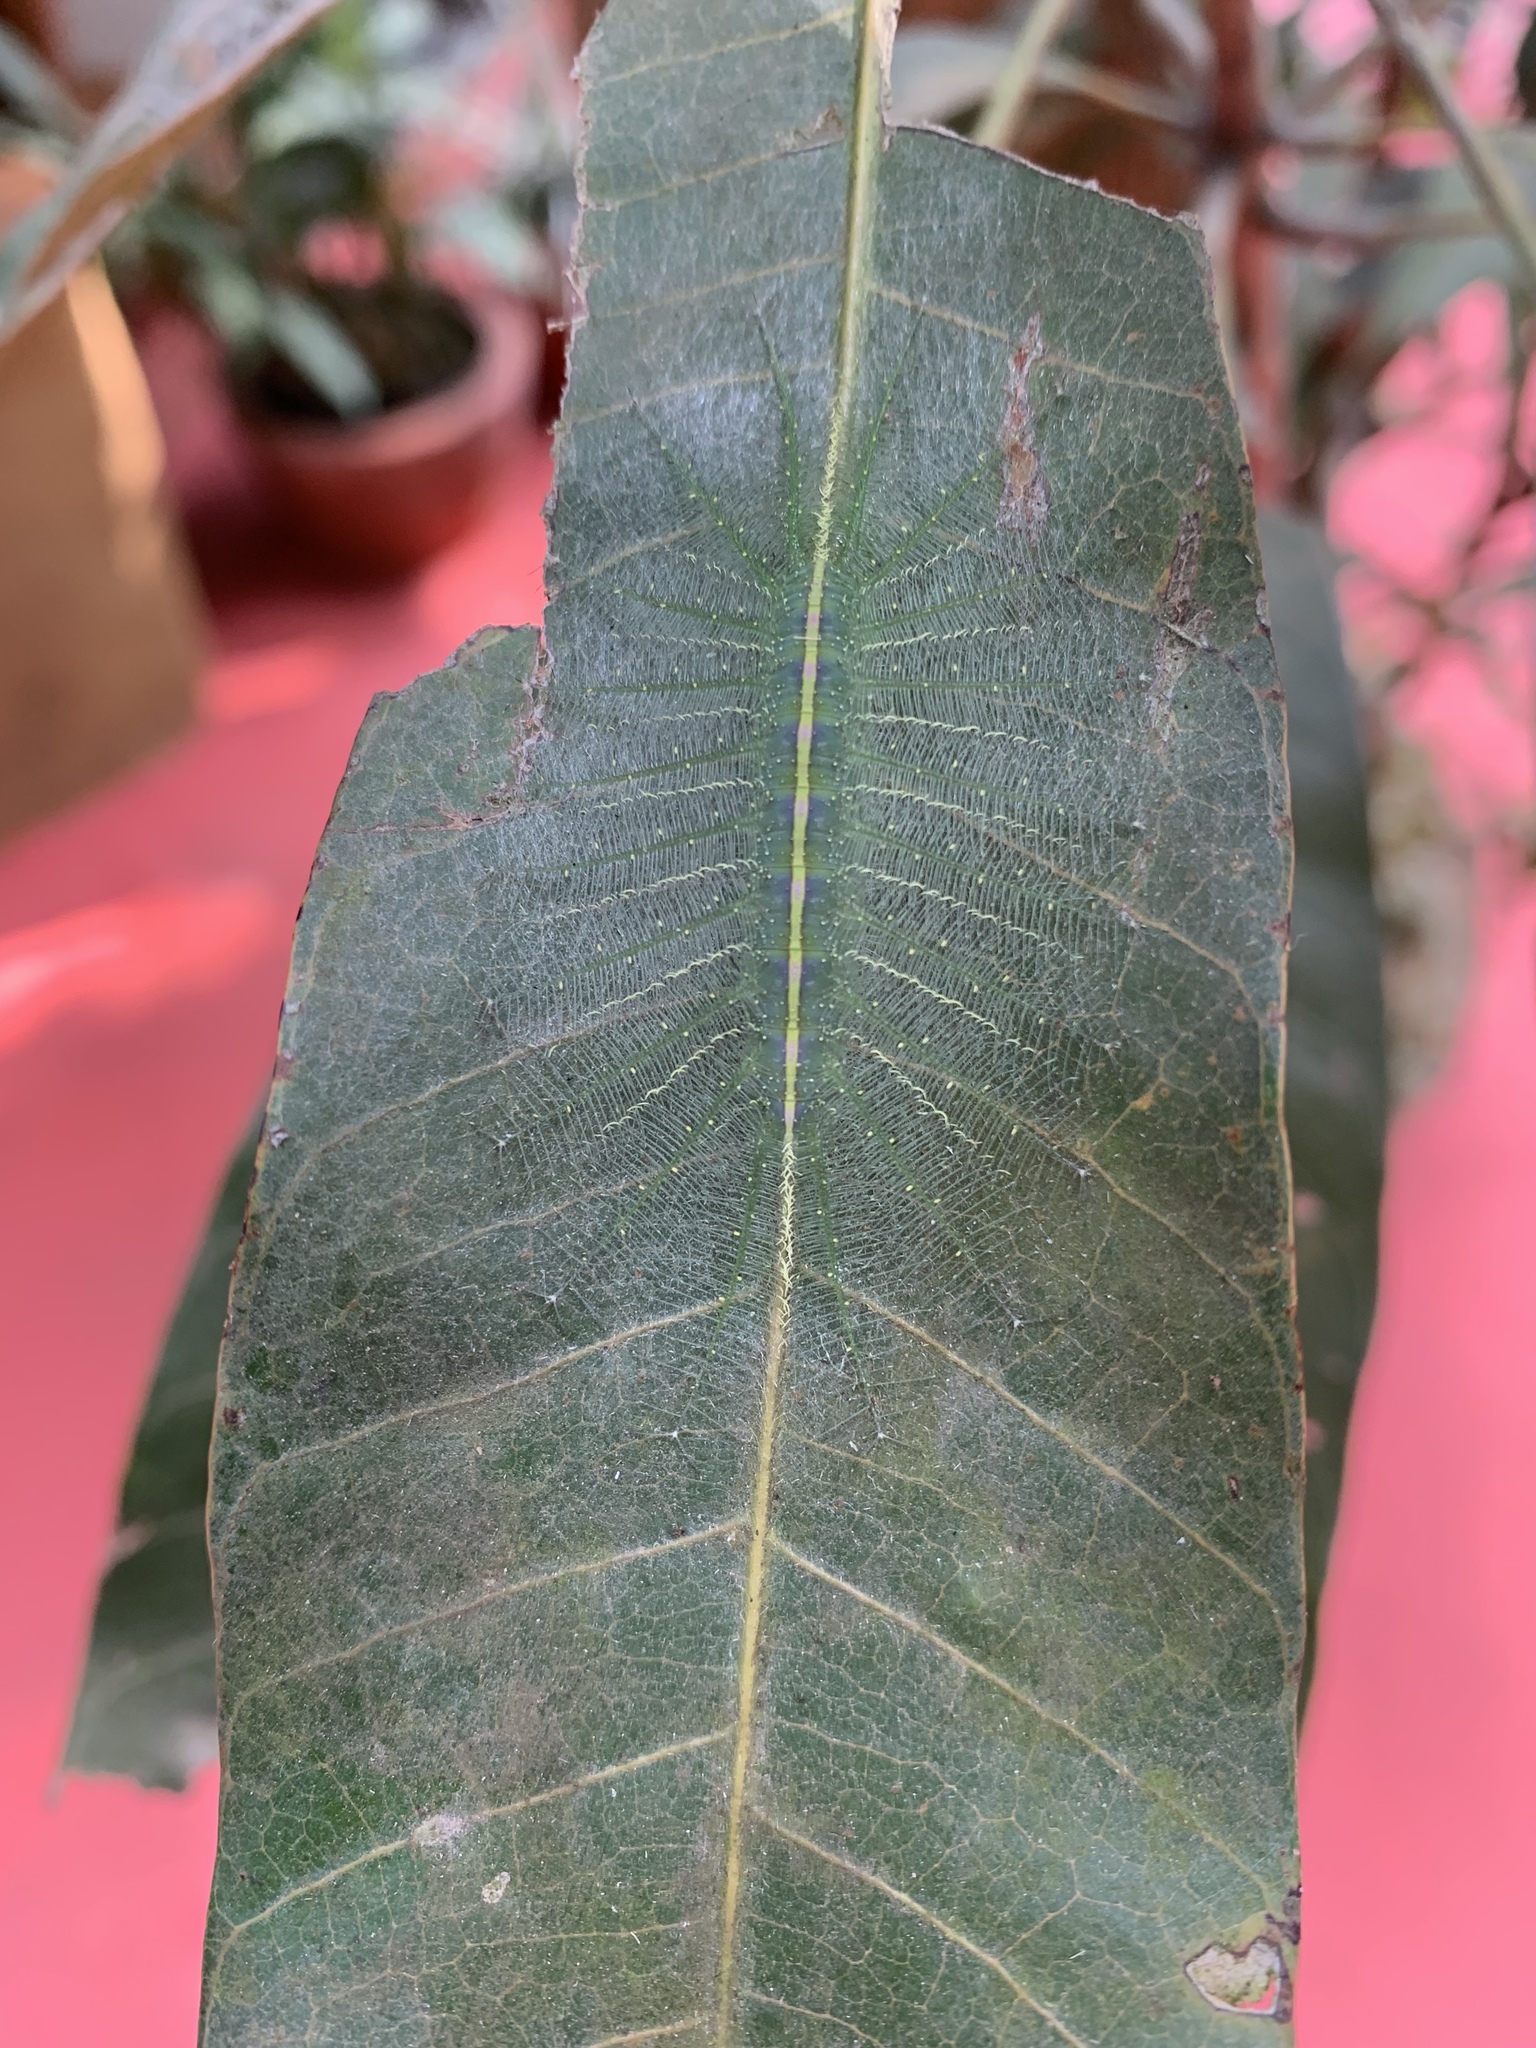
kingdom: Animalia
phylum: Arthropoda
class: Insecta
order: Lepidoptera
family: Nymphalidae
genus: Euthalia
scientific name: Euthalia aconthea
